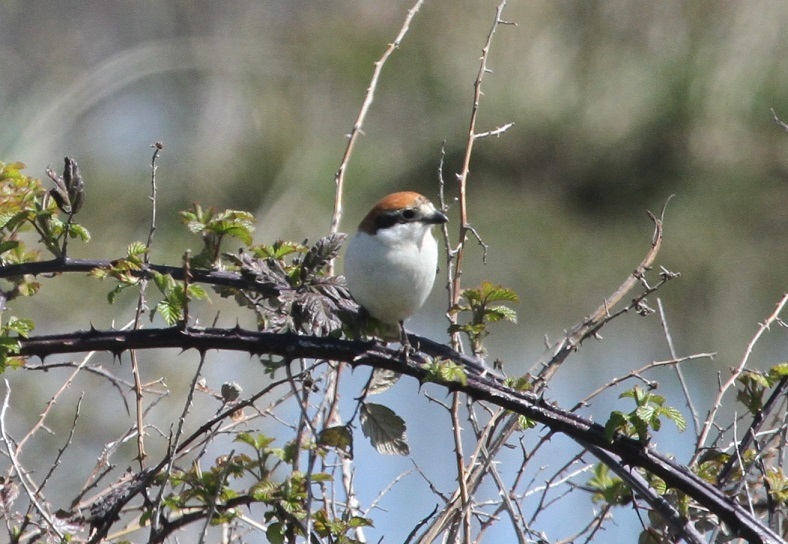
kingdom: Animalia
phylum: Chordata
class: Aves
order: Passeriformes
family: Laniidae
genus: Lanius
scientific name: Lanius senator
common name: Woodchat shrike
